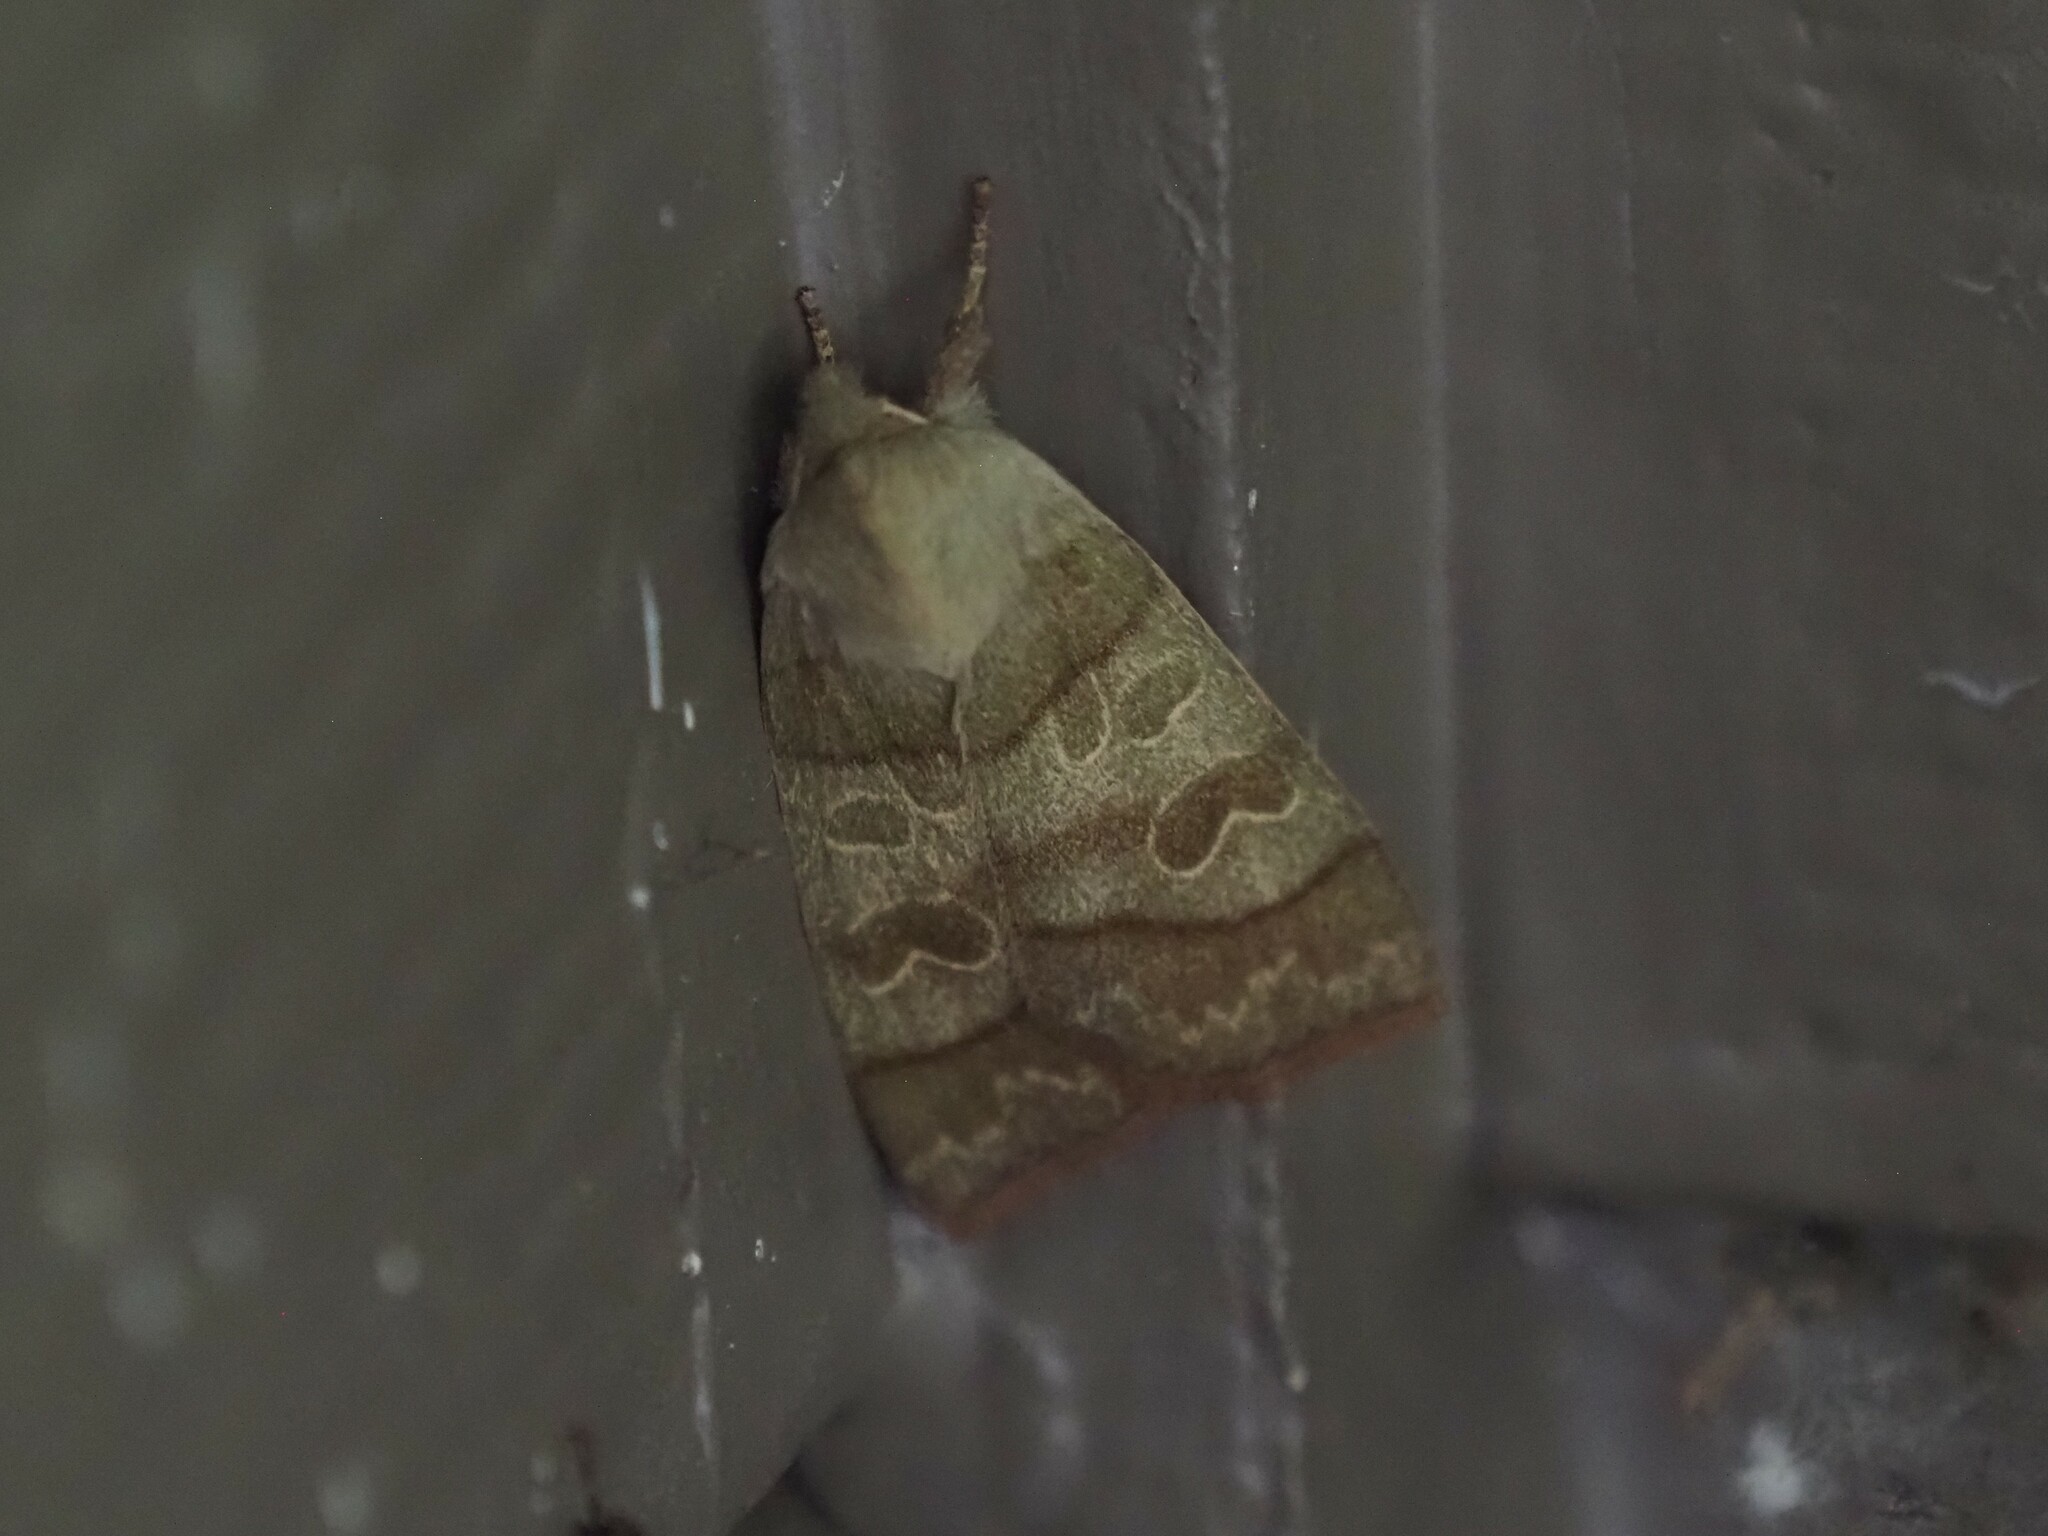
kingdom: Animalia
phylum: Arthropoda
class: Insecta
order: Lepidoptera
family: Noctuidae
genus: Ipimorpha
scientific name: Ipimorpha pleonectusa
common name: Even-lined sallow
